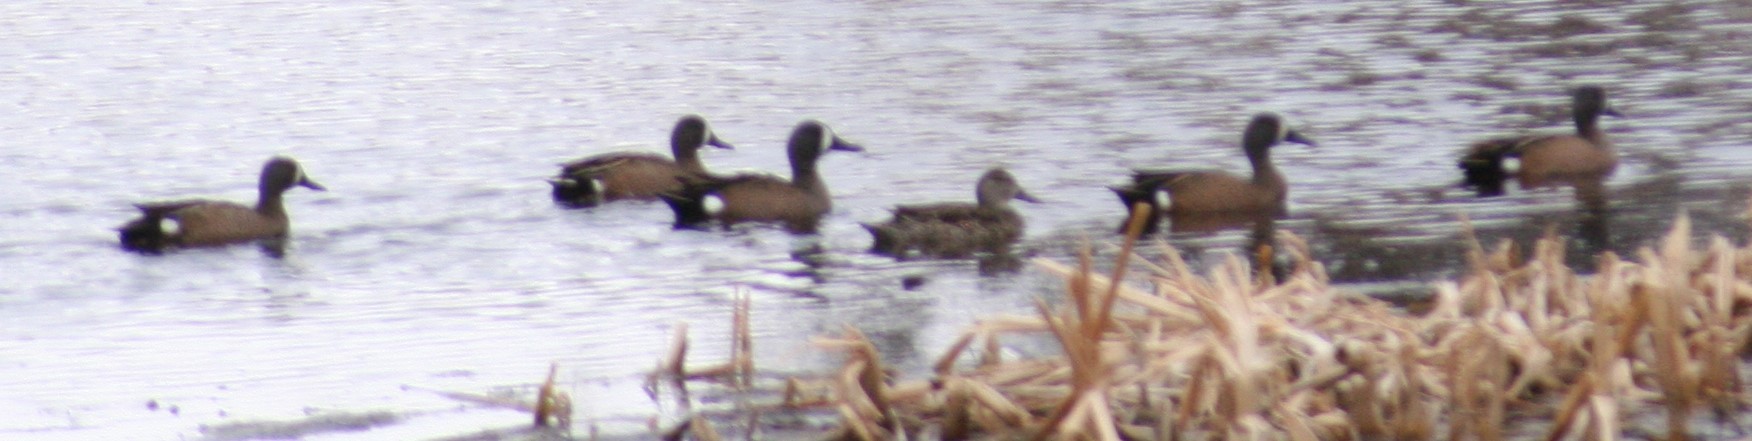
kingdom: Animalia
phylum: Chordata
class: Aves
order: Anseriformes
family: Anatidae
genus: Spatula
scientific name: Spatula discors
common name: Blue-winged teal
